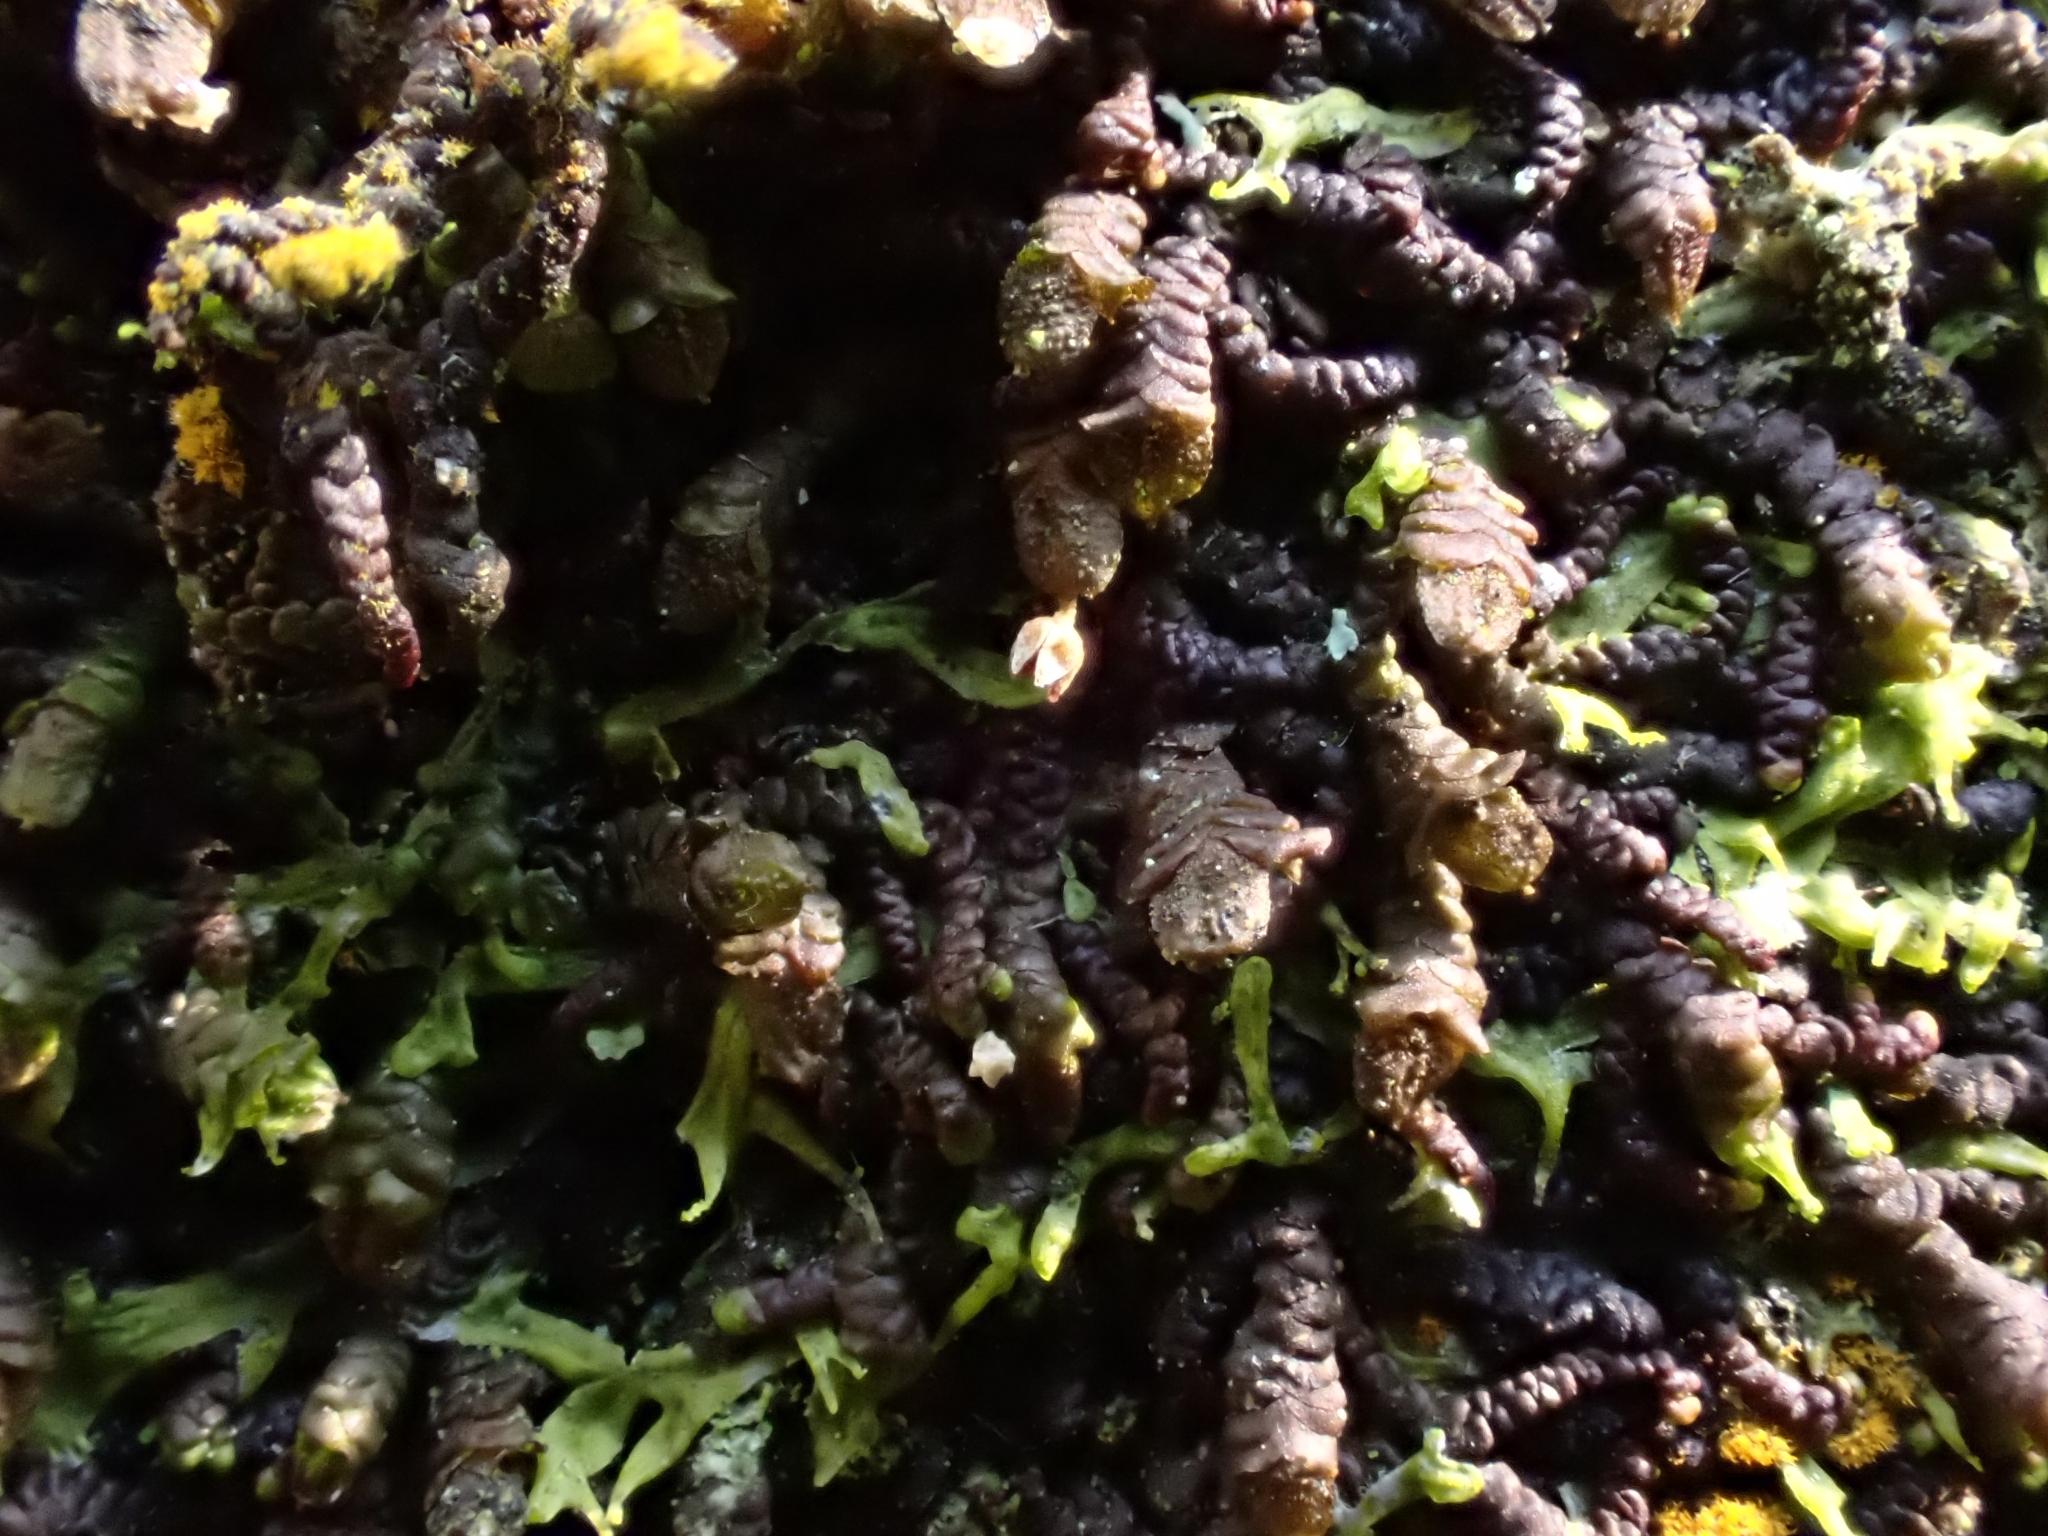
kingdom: Plantae
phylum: Marchantiophyta
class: Jungermanniopsida
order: Porellales
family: Frullaniaceae
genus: Frullania
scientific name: Frullania dilatata
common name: Dilated scalewort
